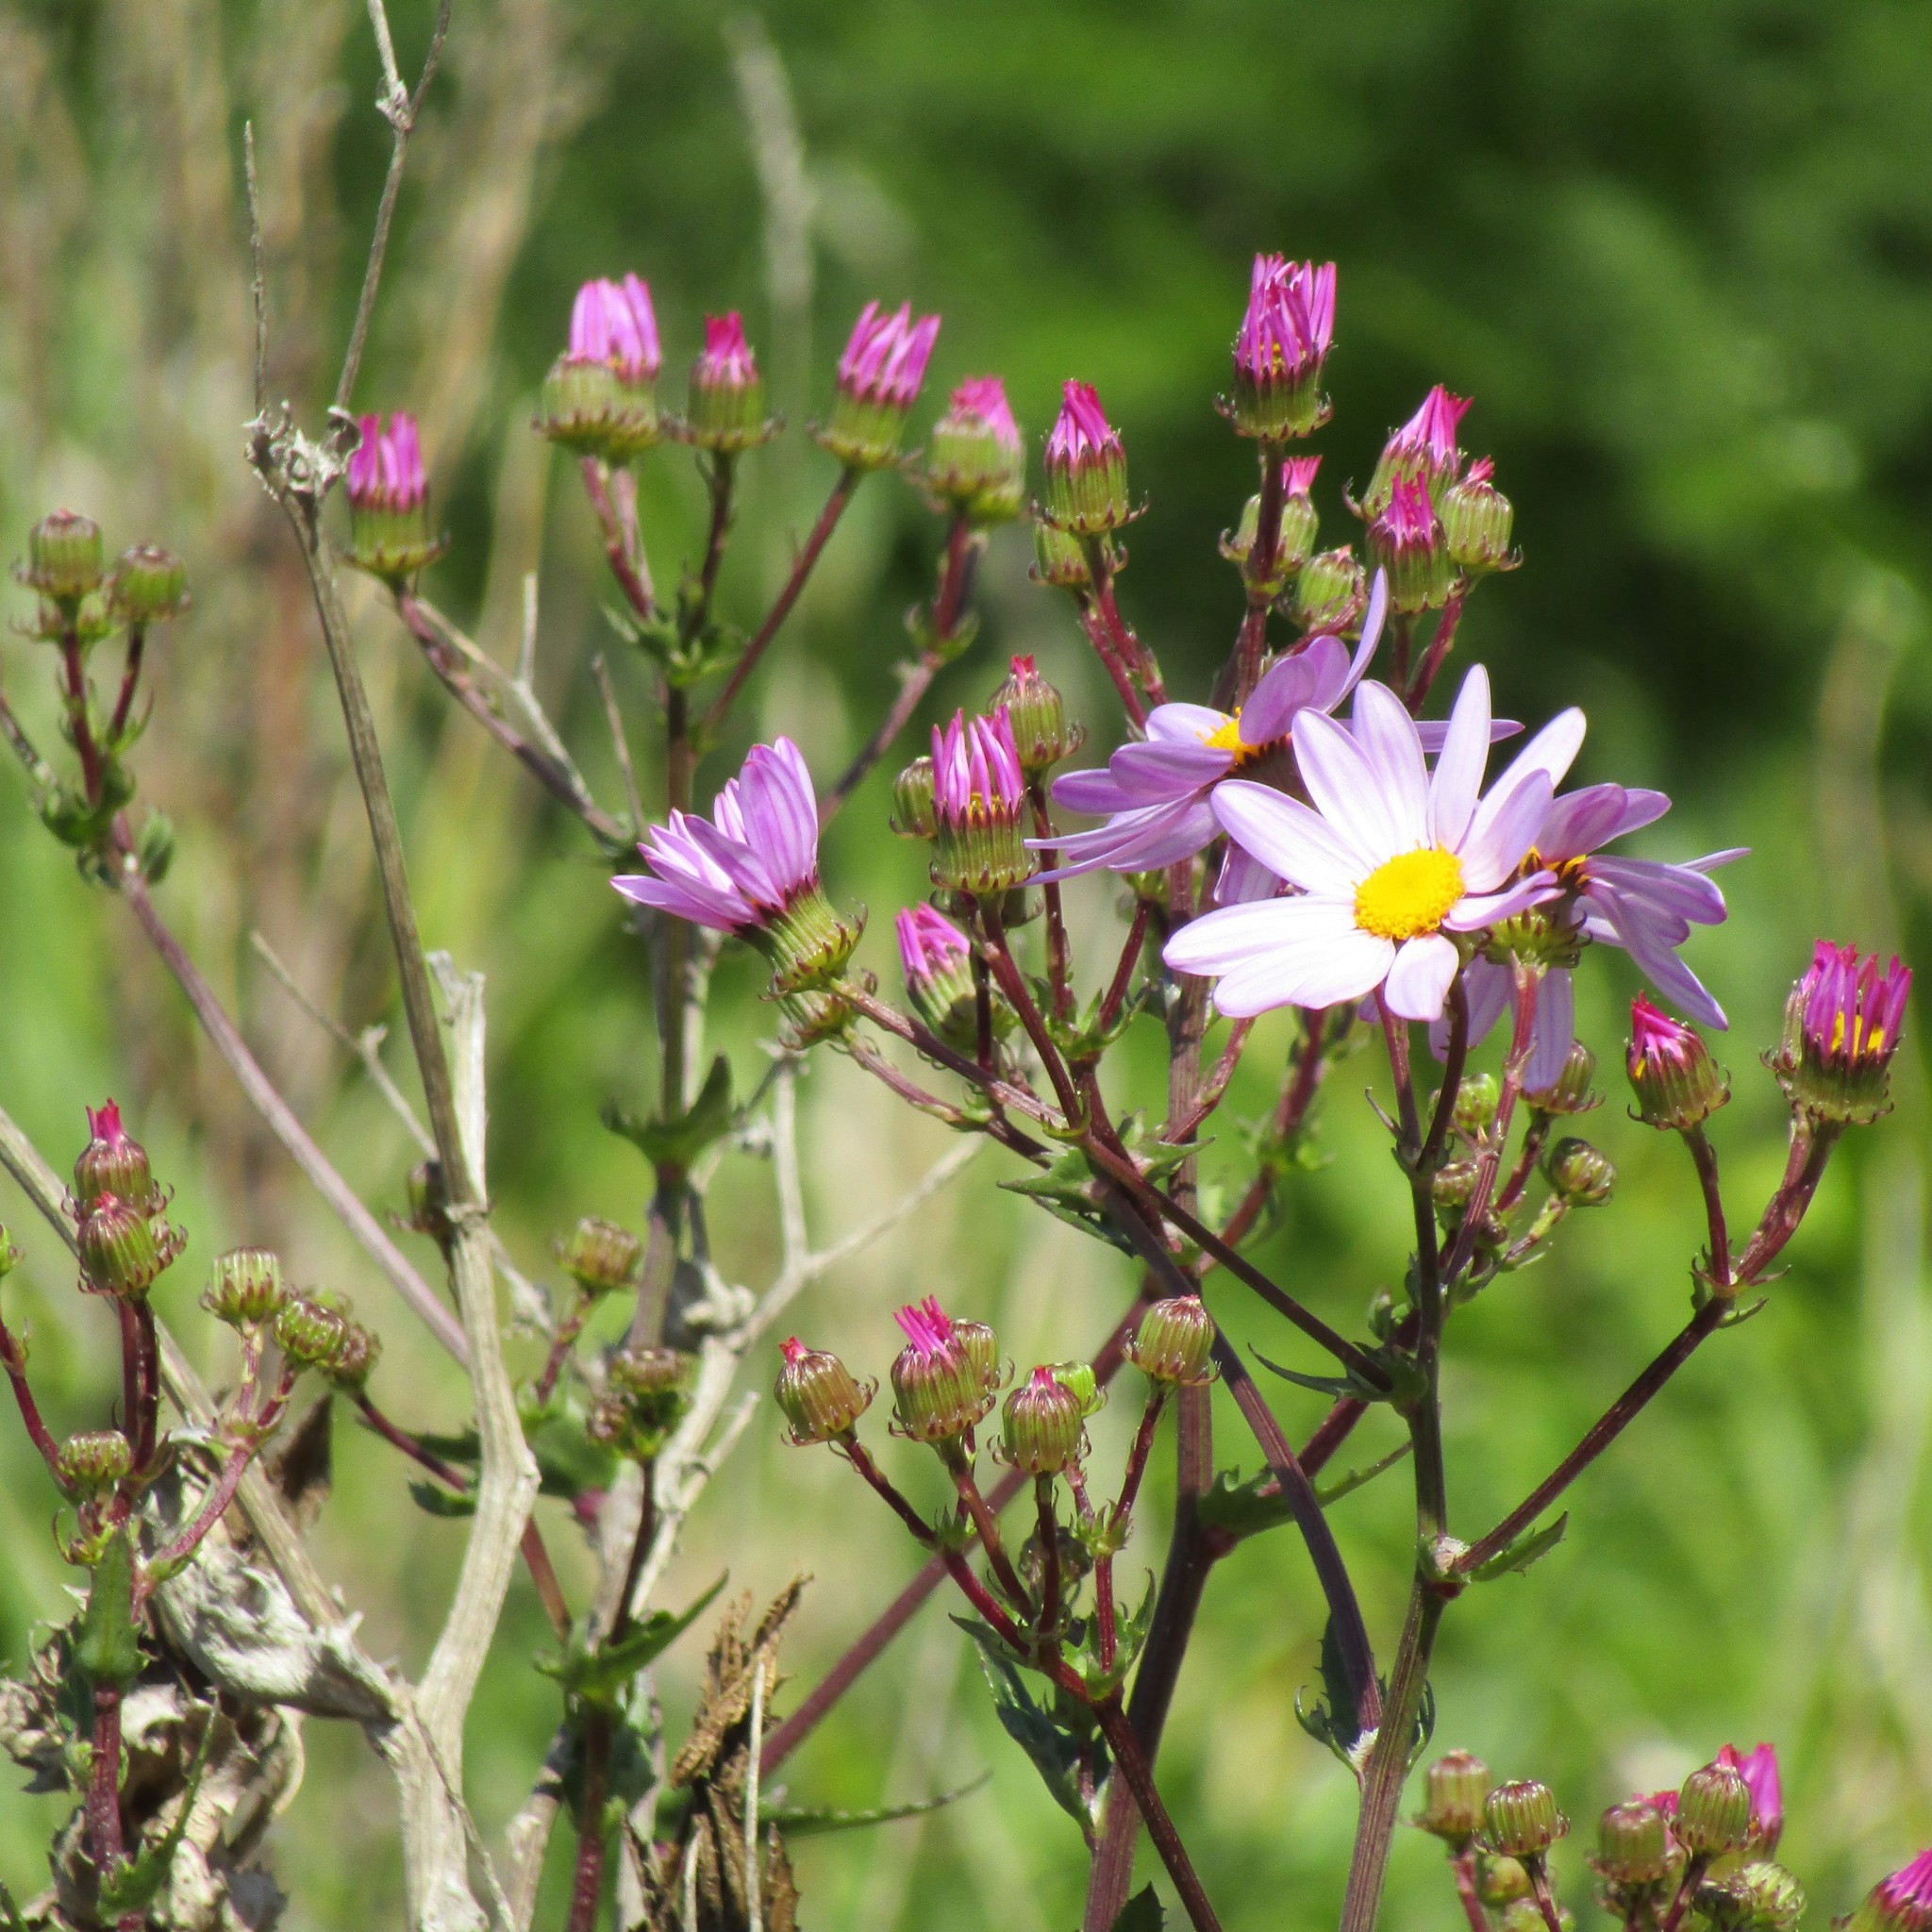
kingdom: Plantae
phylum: Tracheophyta
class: Magnoliopsida
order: Asterales
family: Asteraceae
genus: Senecio
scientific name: Senecio glastifolius
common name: Woad-leaved ragwort
